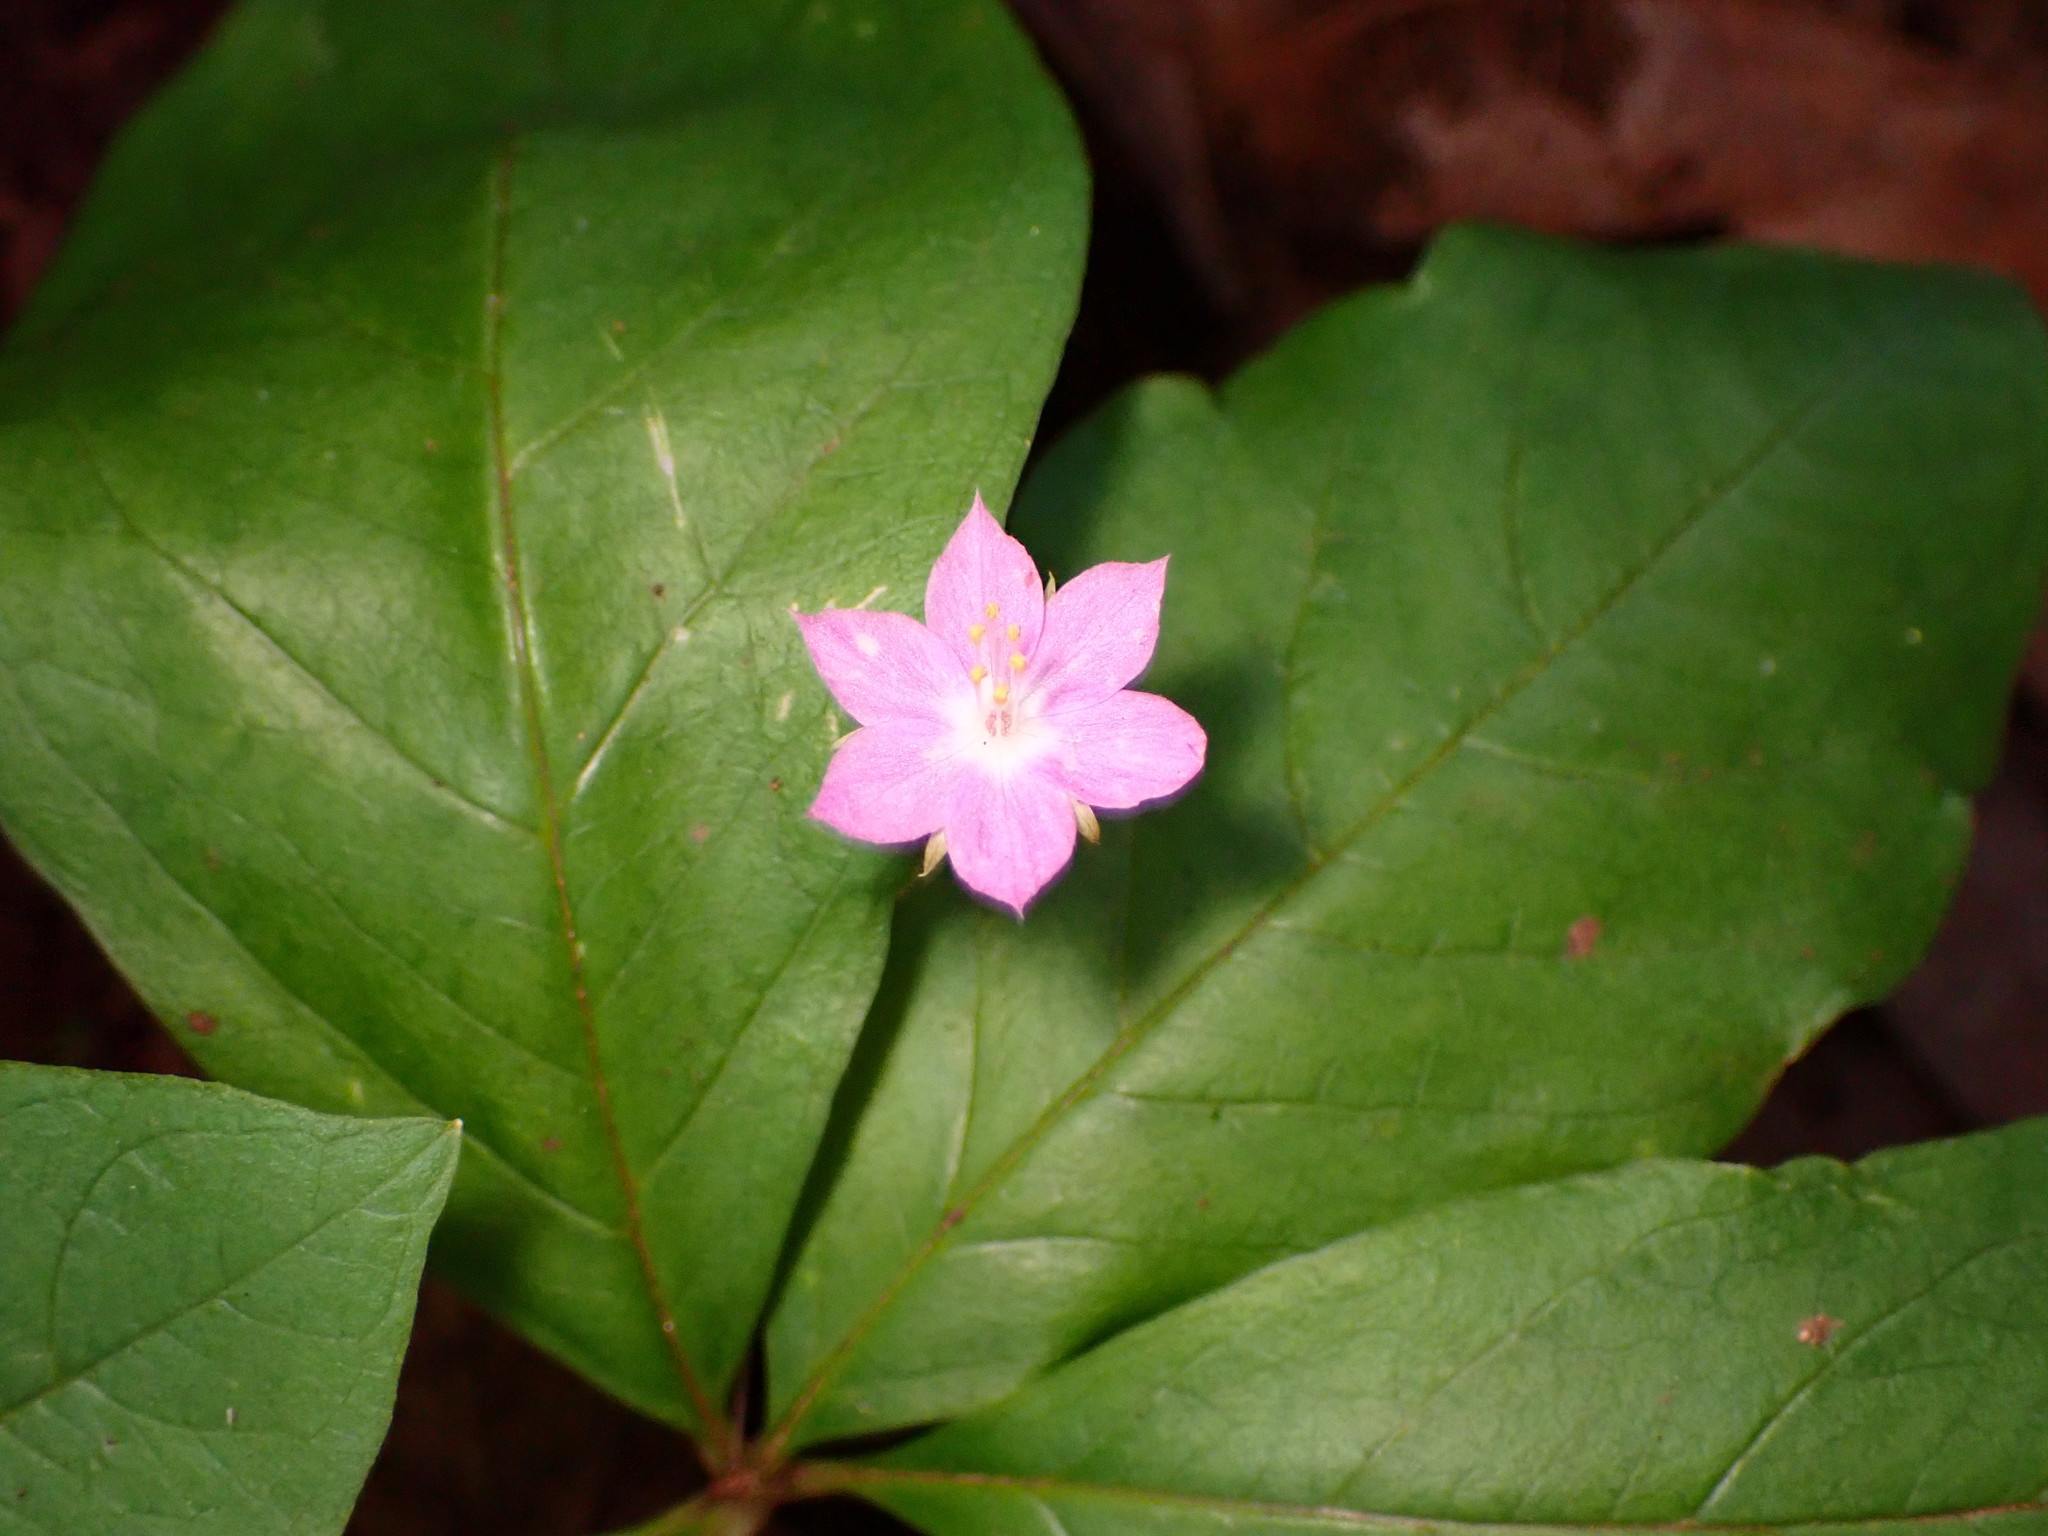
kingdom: Plantae
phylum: Tracheophyta
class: Magnoliopsida
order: Ericales
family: Primulaceae
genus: Lysimachia
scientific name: Lysimachia latifolia
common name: Pacific starflower
